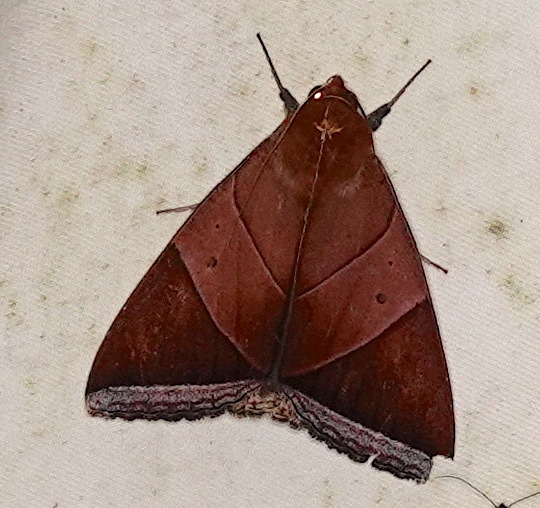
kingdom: Animalia
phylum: Arthropoda
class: Insecta
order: Lepidoptera
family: Erebidae
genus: Artena
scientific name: Artena inversa
